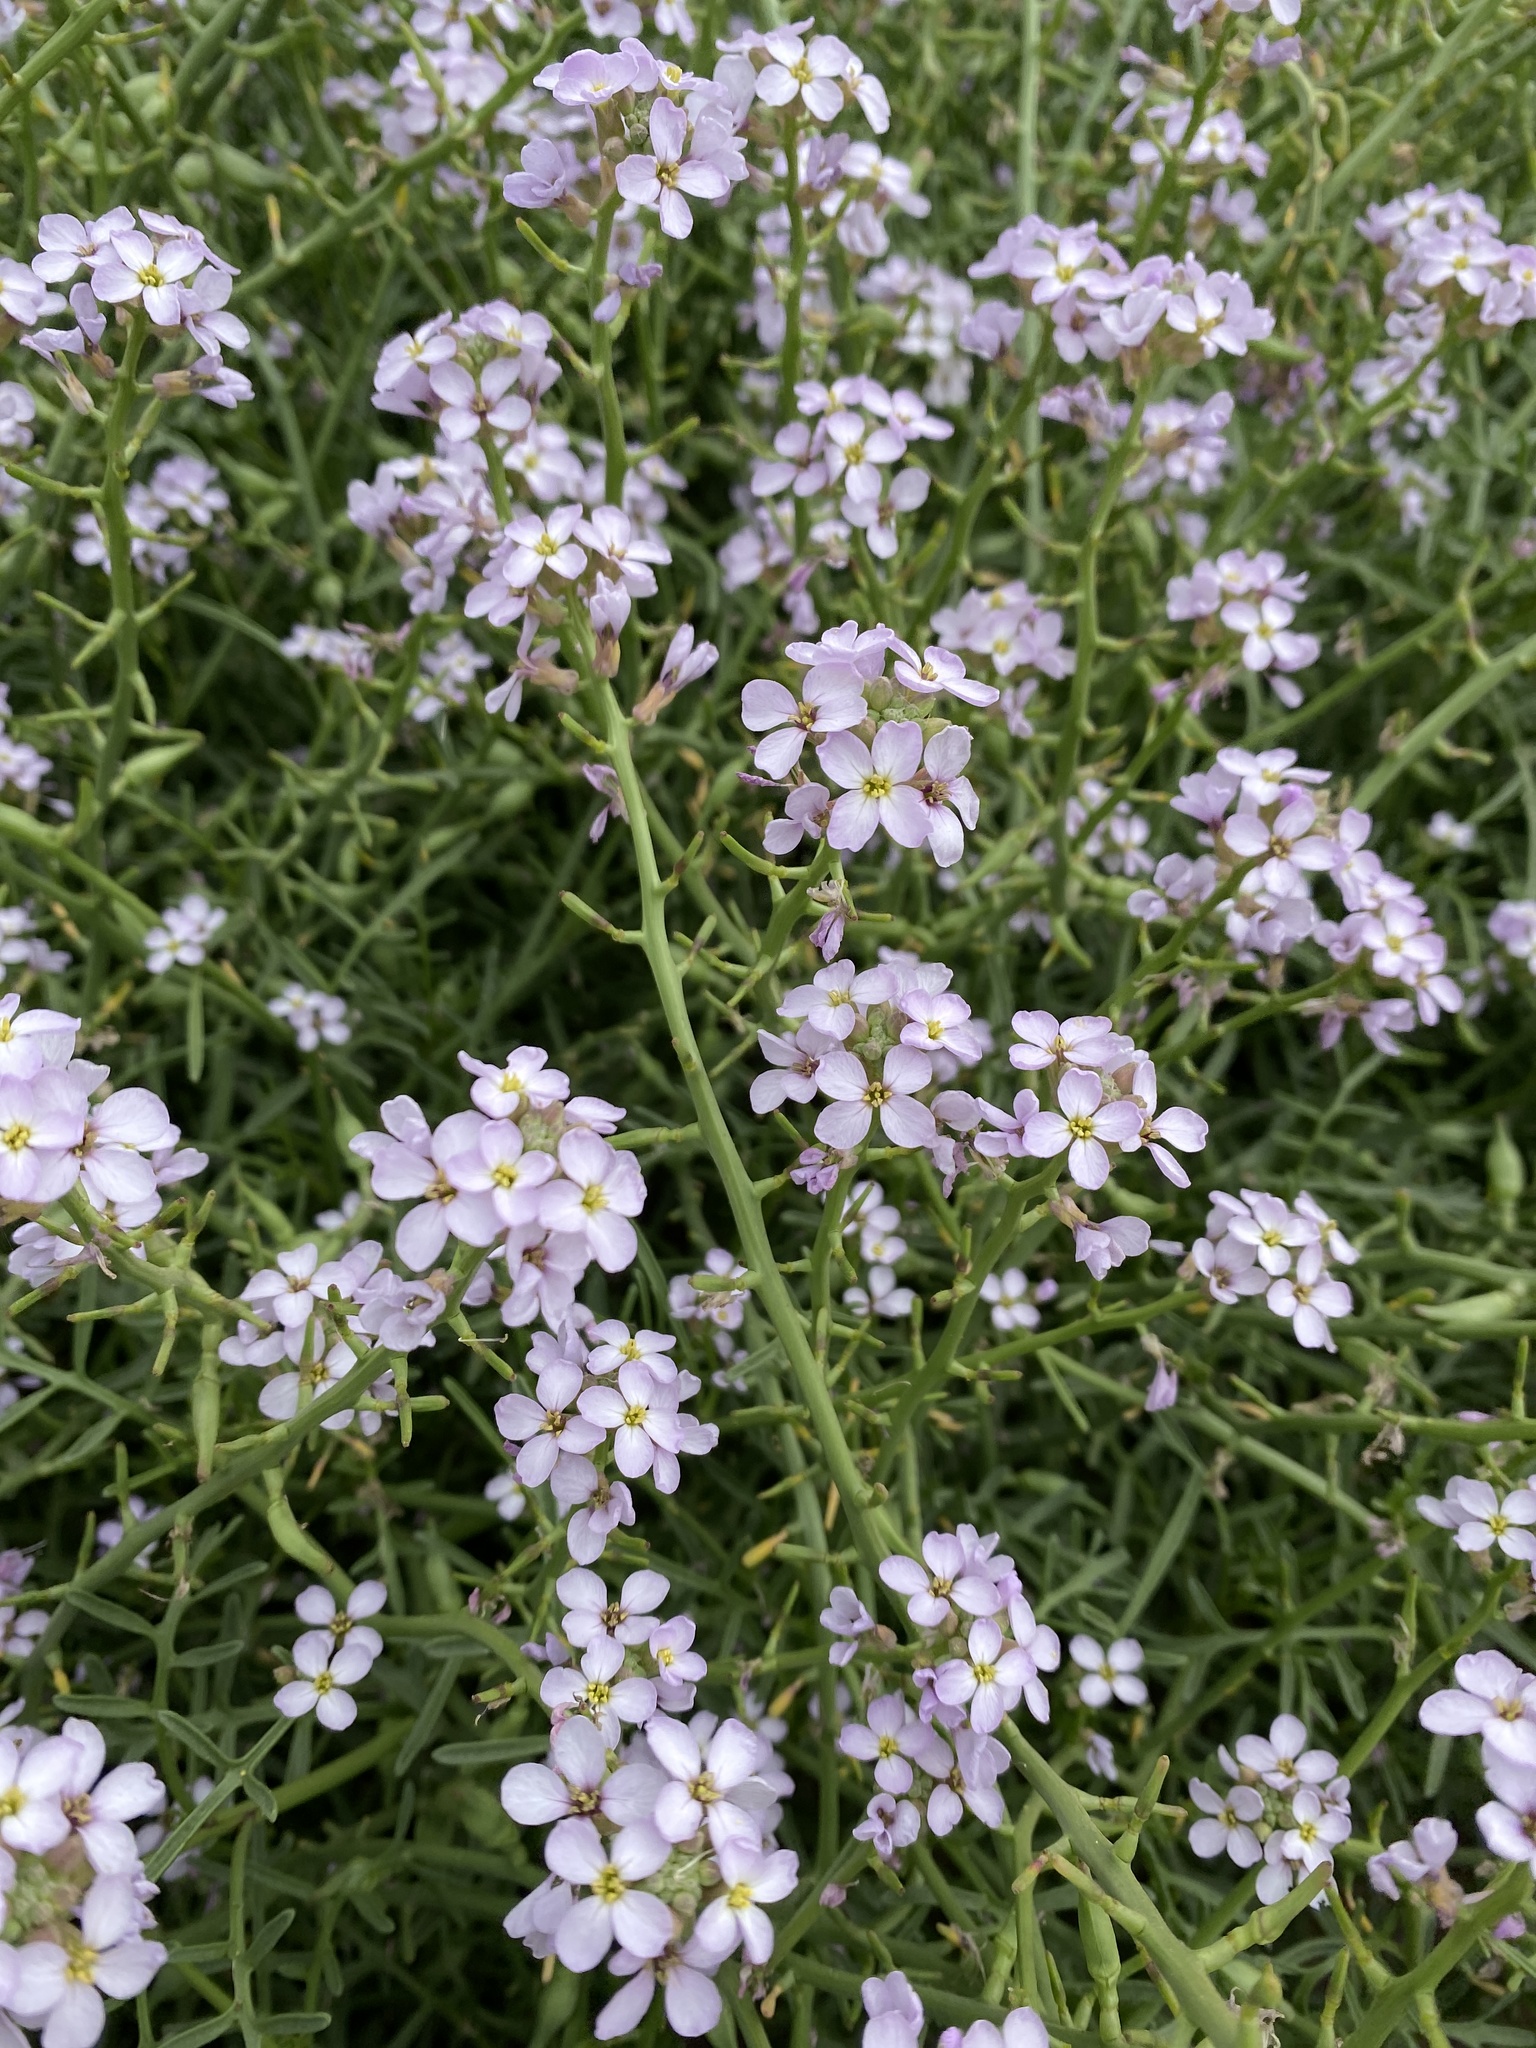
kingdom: Plantae
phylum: Tracheophyta
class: Magnoliopsida
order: Brassicales
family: Brassicaceae
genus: Cakile
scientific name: Cakile maritima
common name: Sea rocket
